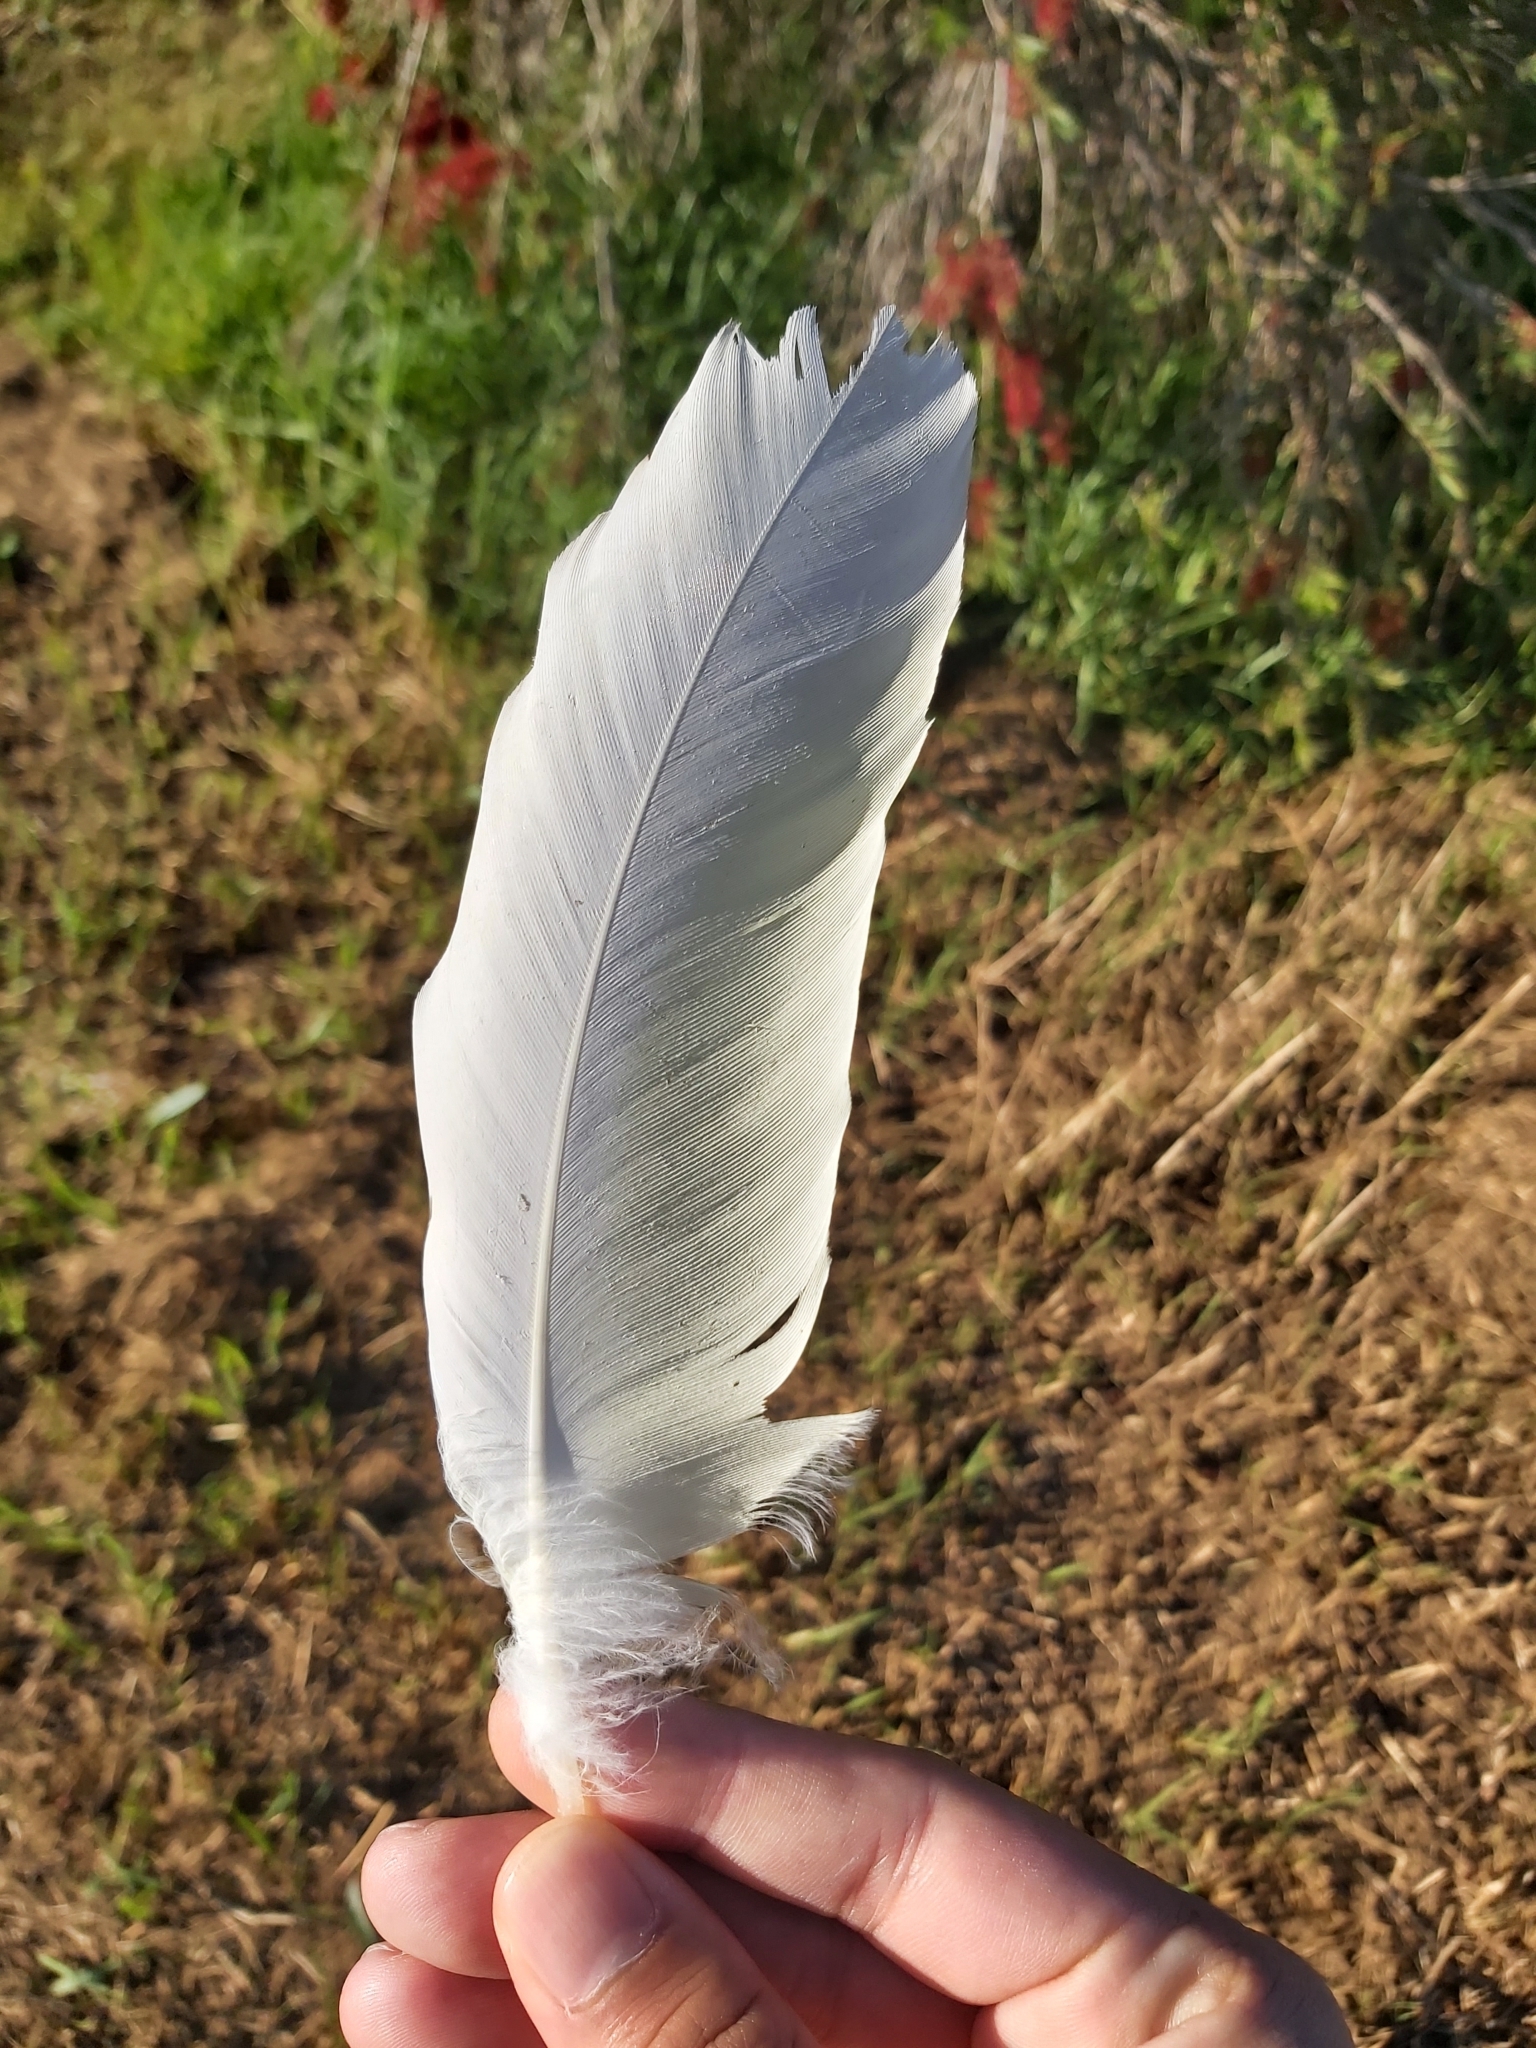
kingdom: Animalia
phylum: Chordata
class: Aves
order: Psittaciformes
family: Psittacidae
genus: Cacatua
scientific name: Cacatua galerita
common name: Sulphur-crested cockatoo
